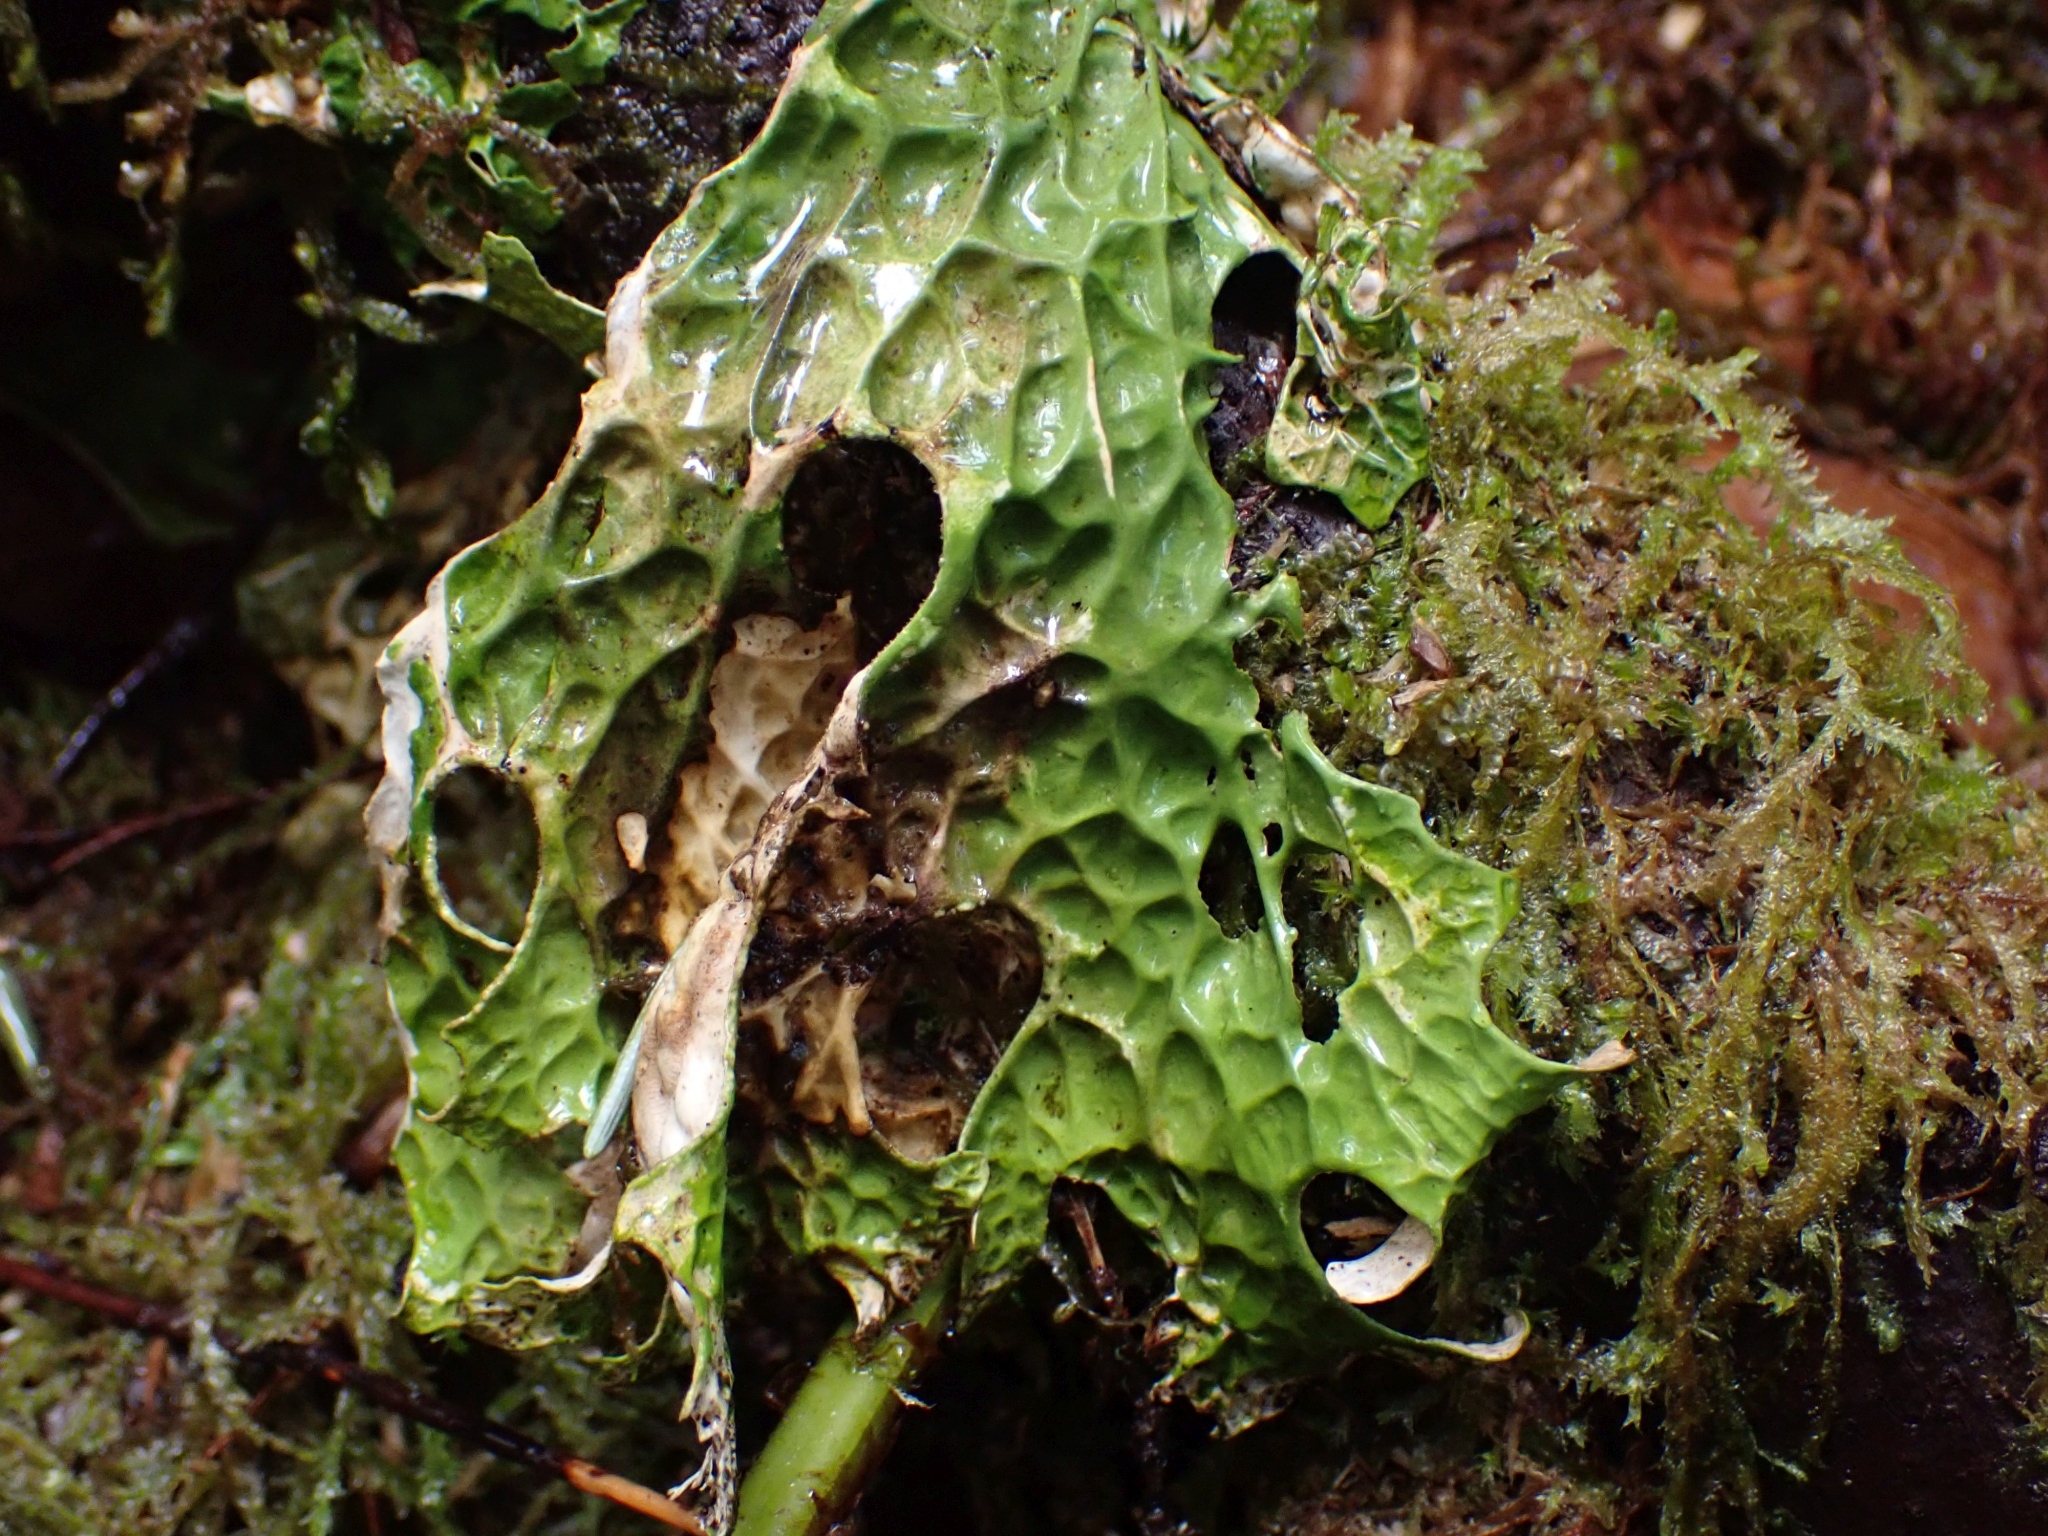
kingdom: Fungi
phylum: Ascomycota
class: Lecanoromycetes
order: Peltigerales
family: Lobariaceae
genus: Lobaria
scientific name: Lobaria pulmonaria
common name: Lungwort
